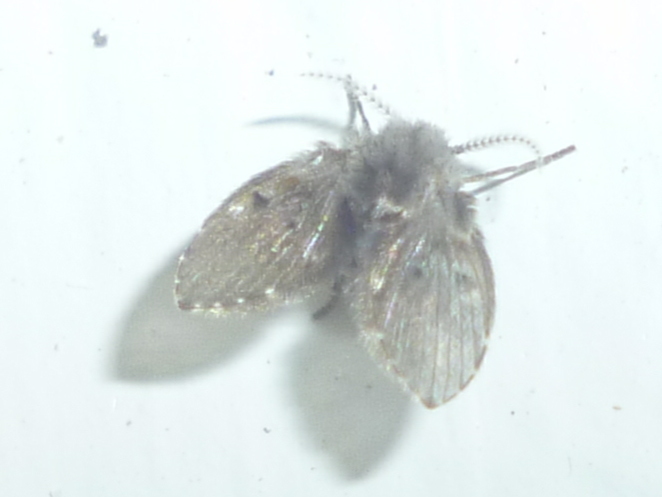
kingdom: Animalia
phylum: Arthropoda
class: Insecta
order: Diptera
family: Psychodidae
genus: Clogmia
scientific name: Clogmia albipunctatus
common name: White-spotted moth fly
